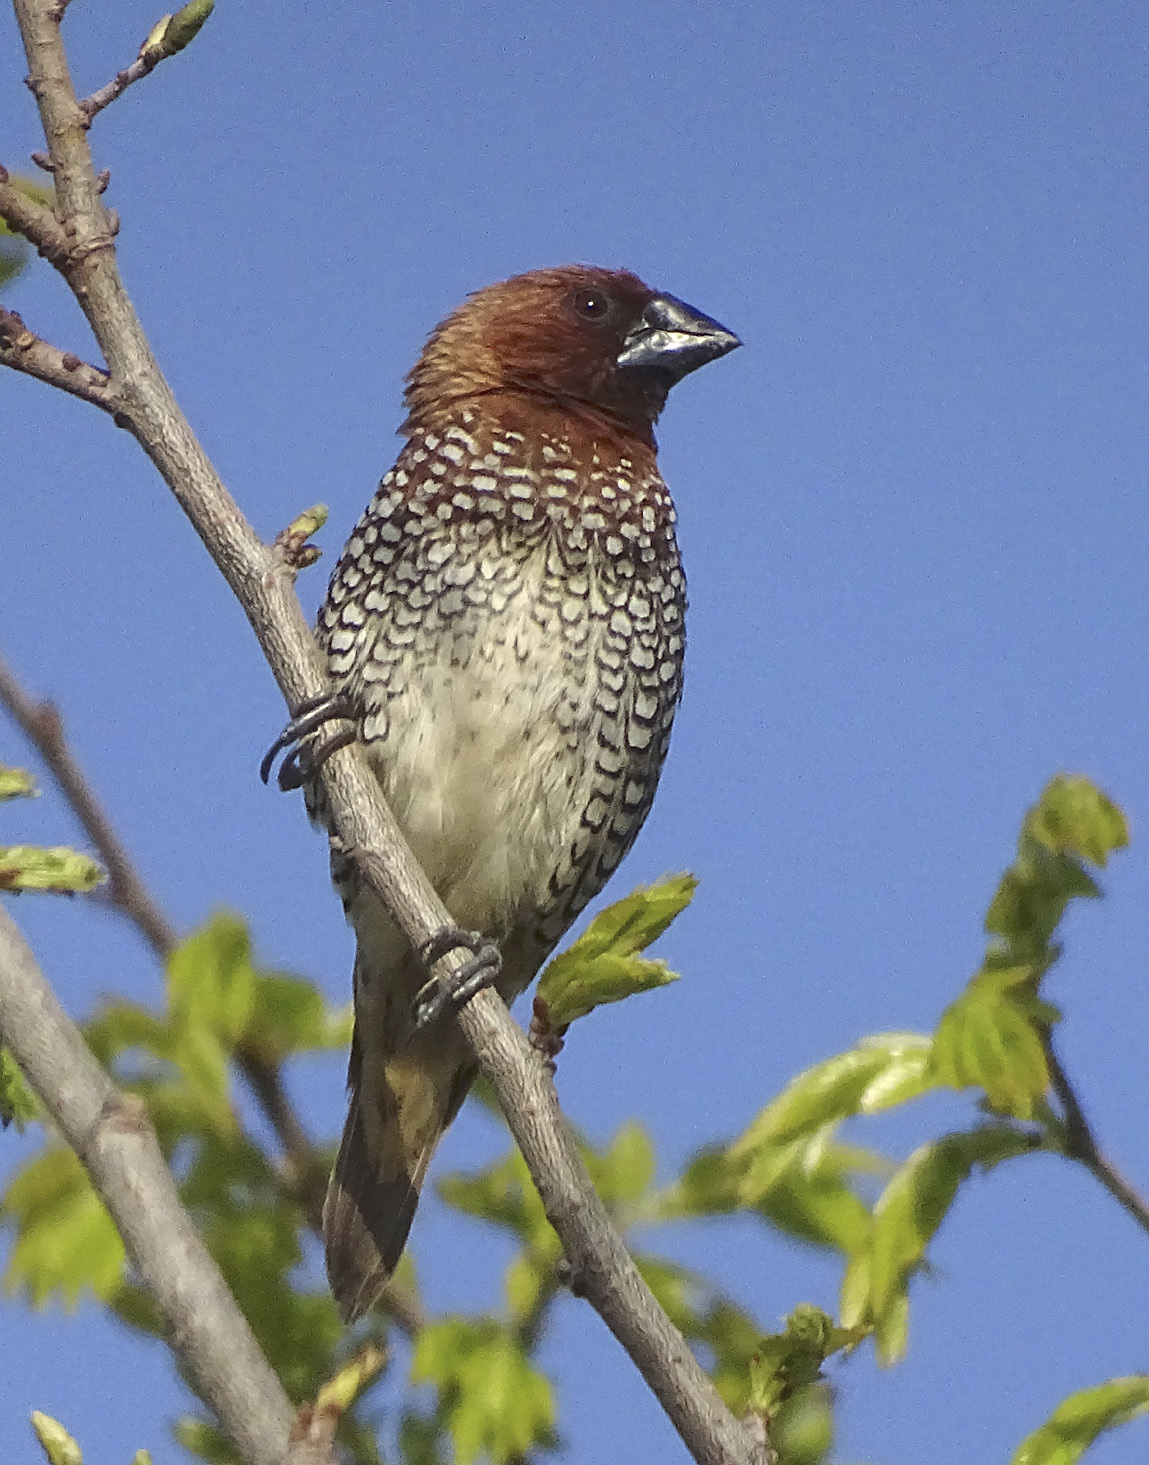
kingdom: Animalia
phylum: Chordata
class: Aves
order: Passeriformes
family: Estrildidae
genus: Lonchura
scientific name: Lonchura punctulata
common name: Scaly-breasted munia
